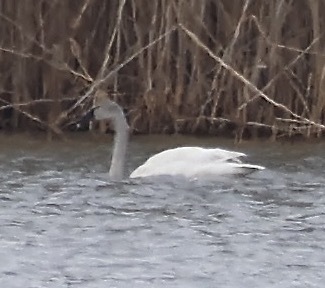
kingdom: Animalia
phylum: Chordata
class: Aves
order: Anseriformes
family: Anatidae
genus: Cygnus
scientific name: Cygnus columbianus
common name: Tundra swan
